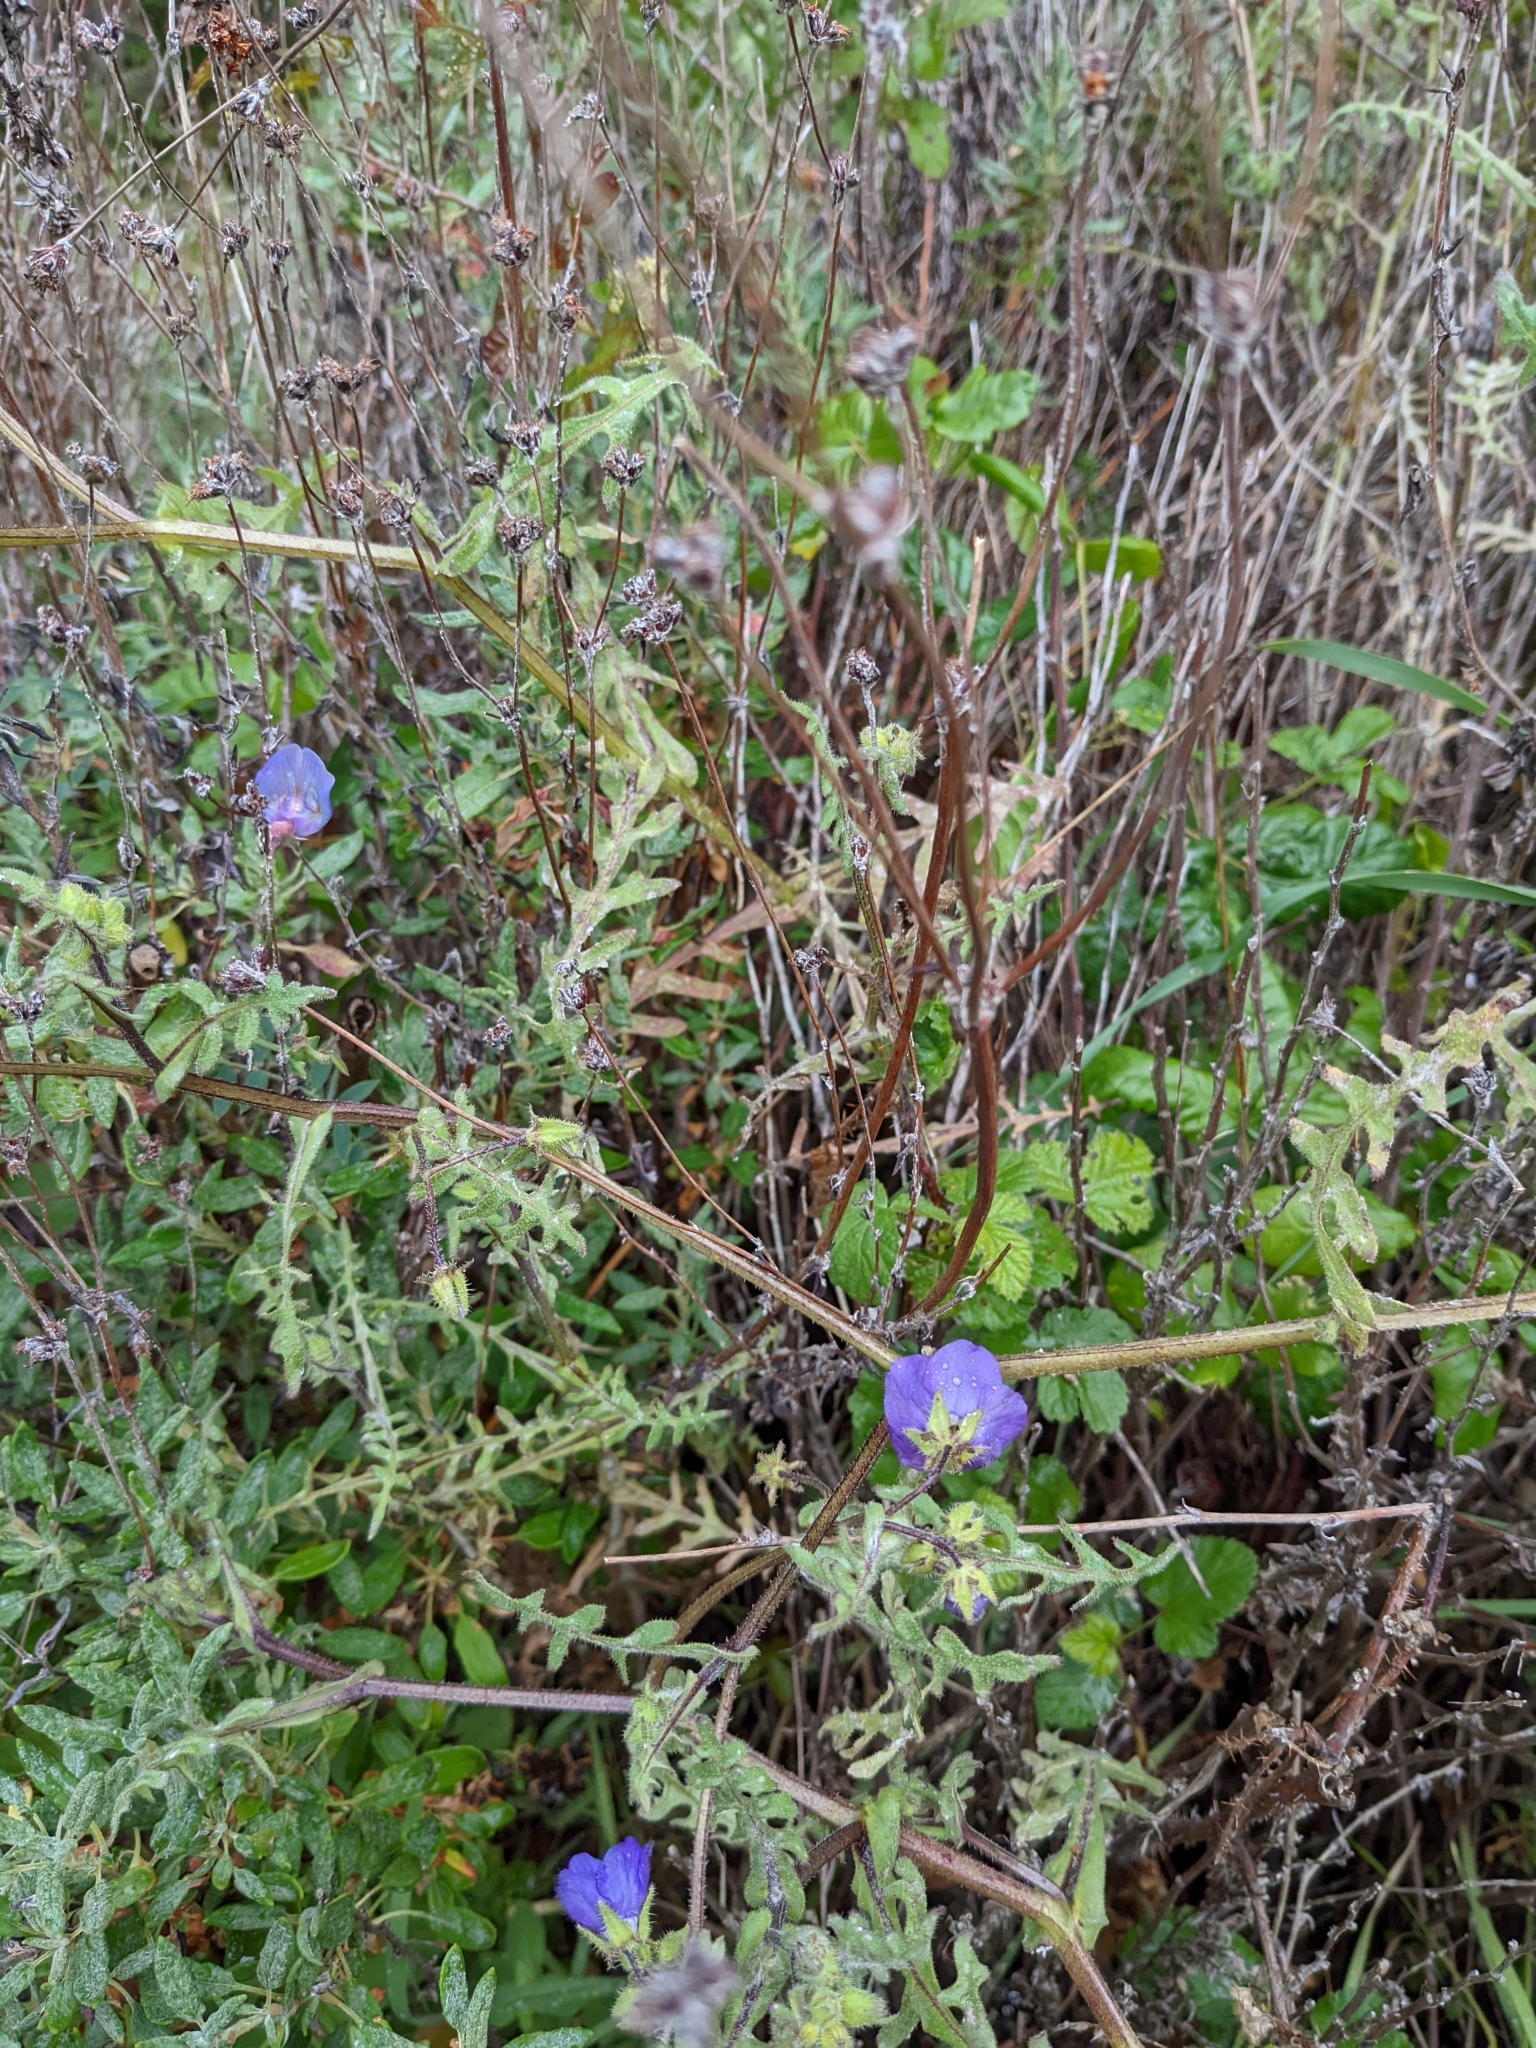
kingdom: Plantae
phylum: Tracheophyta
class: Magnoliopsida
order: Boraginales
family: Hydrophyllaceae
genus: Pholistoma
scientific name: Pholistoma auritum
